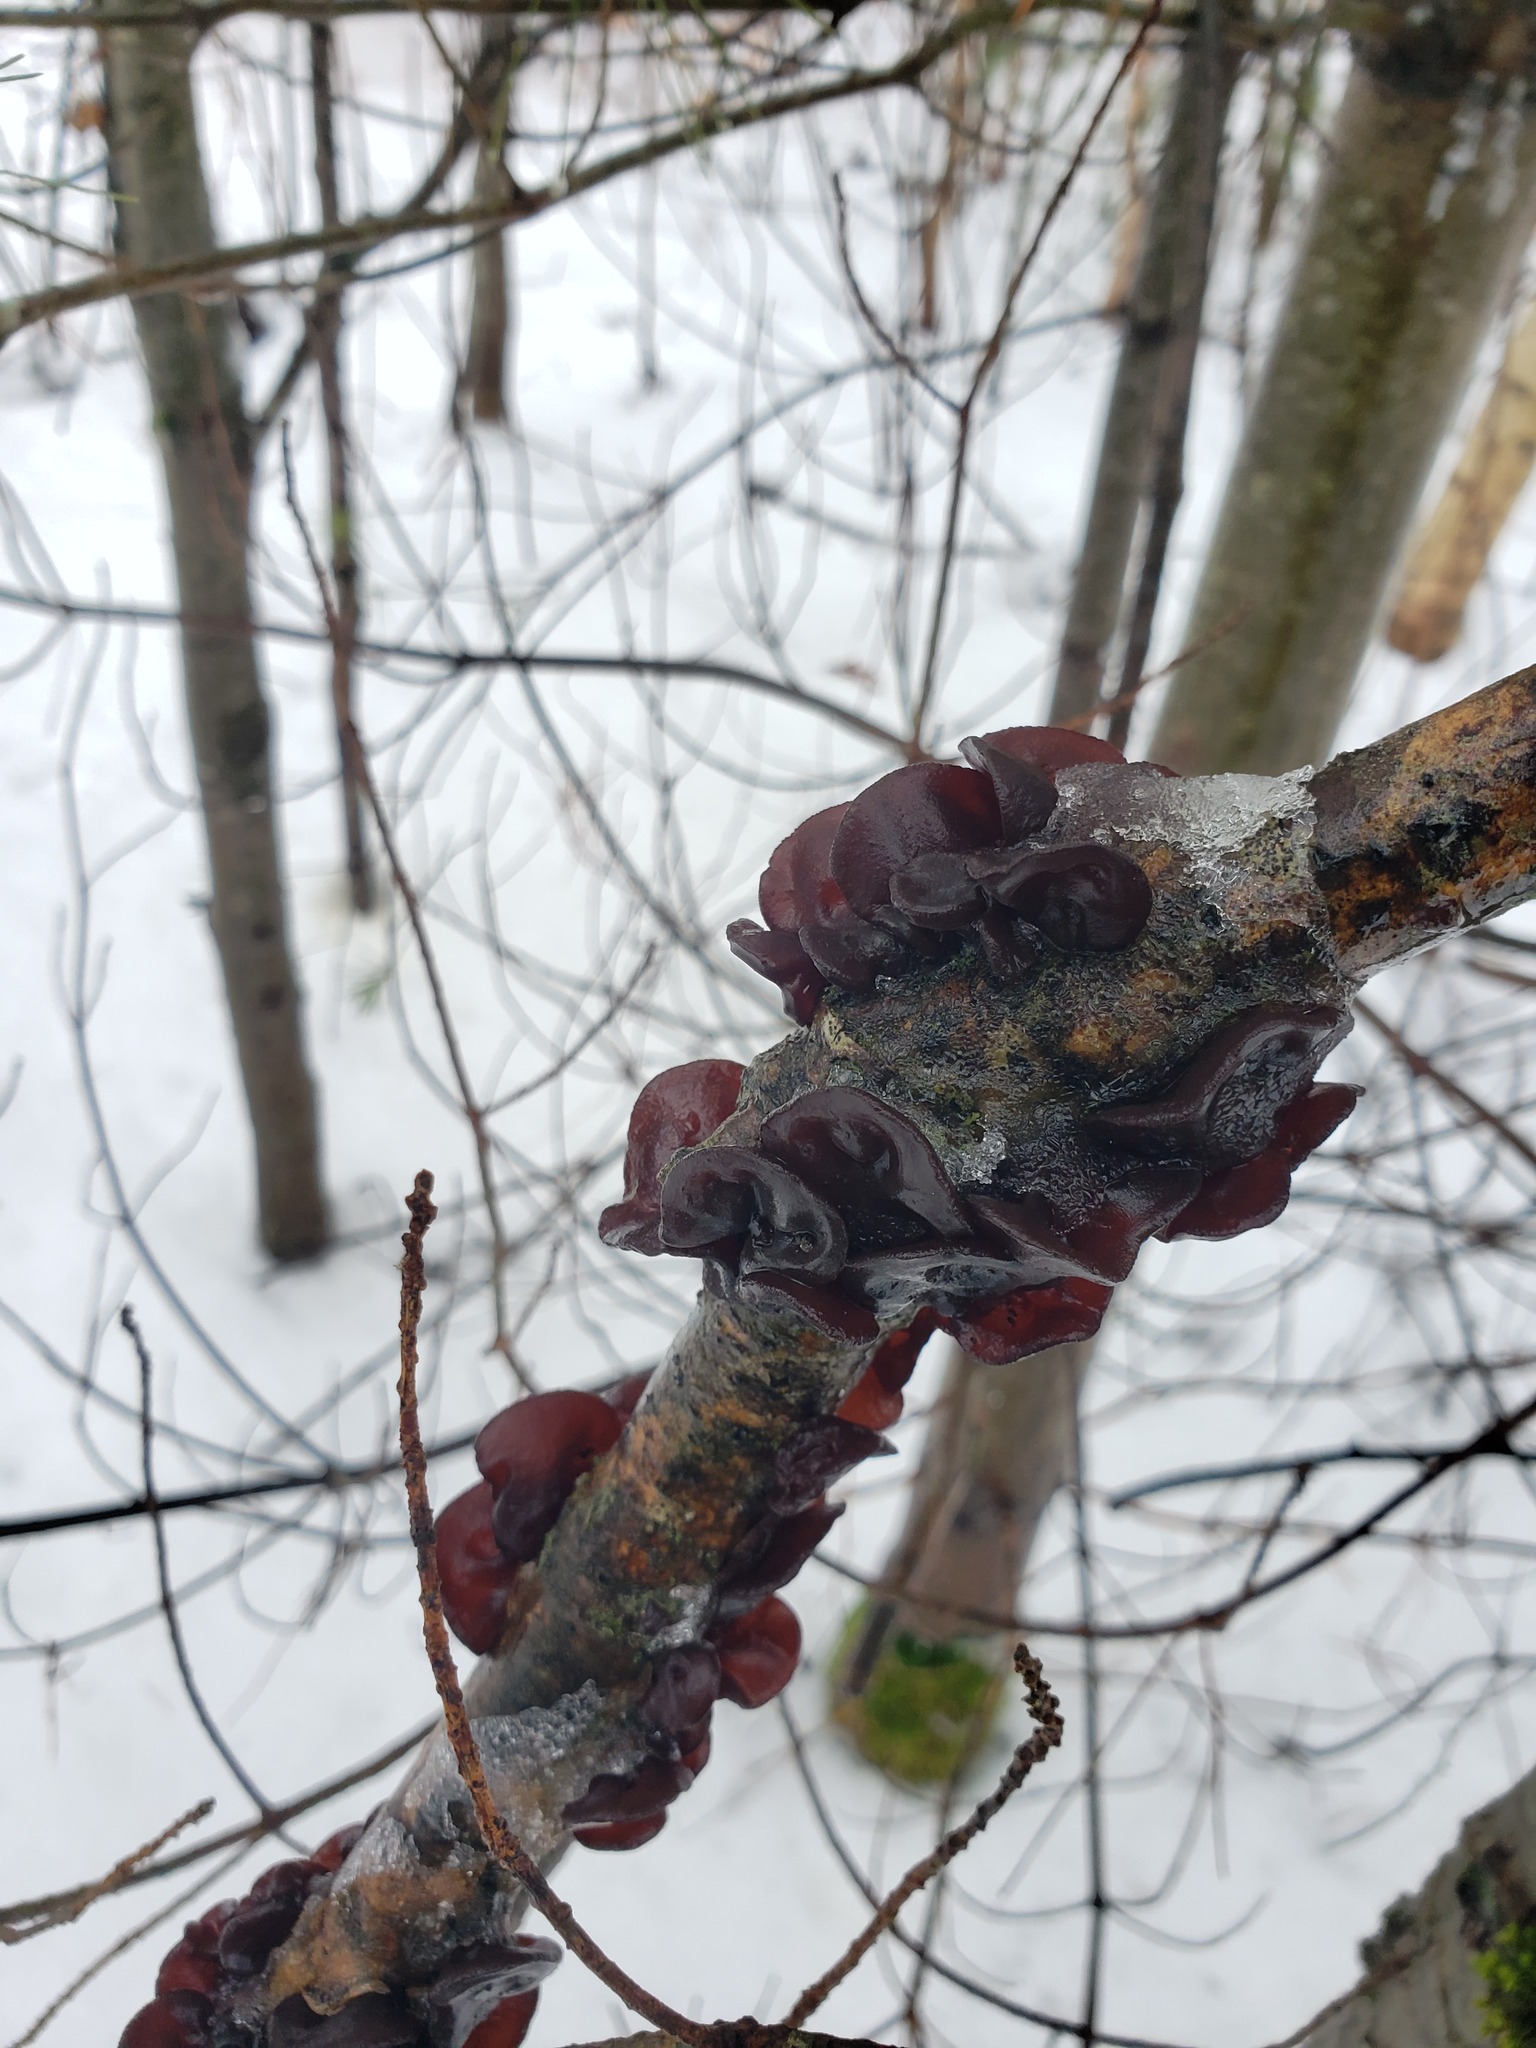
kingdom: Fungi
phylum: Basidiomycota
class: Agaricomycetes
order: Auriculariales
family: Auriculariaceae
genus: Exidia
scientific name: Exidia
